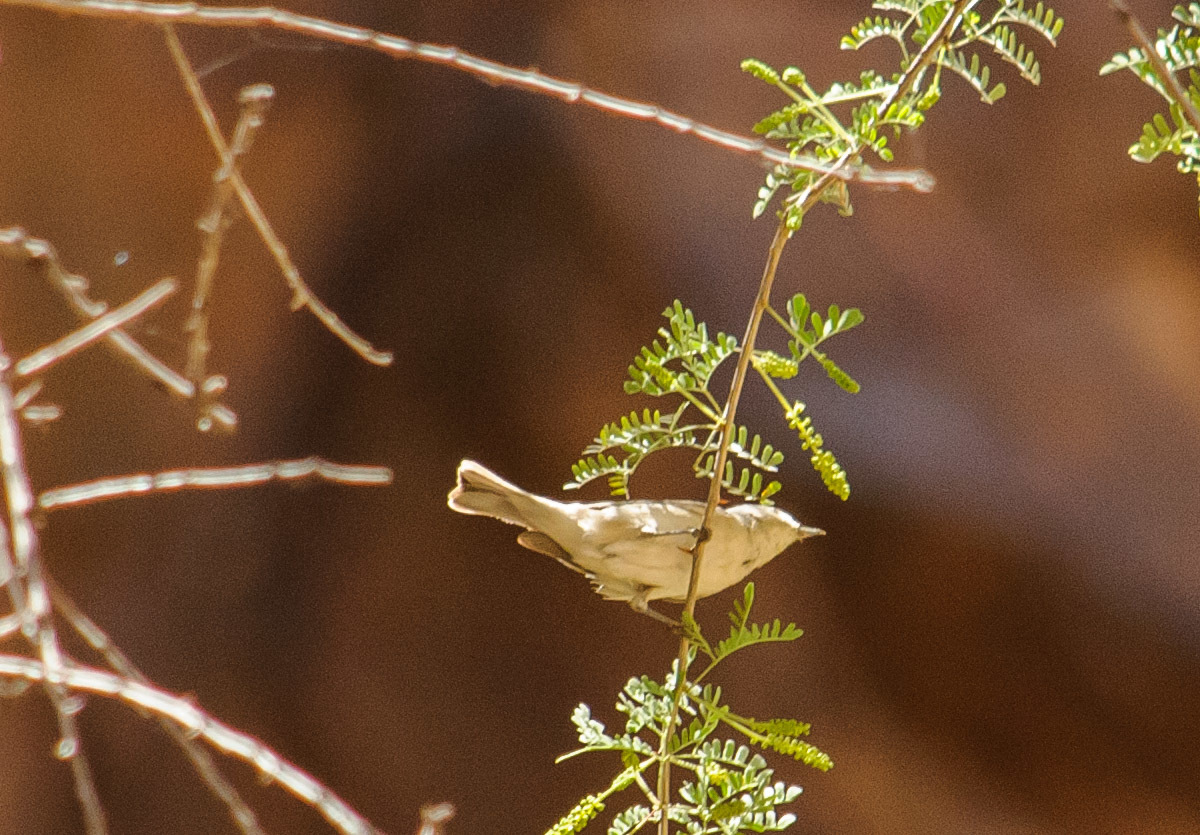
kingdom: Animalia
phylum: Chordata
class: Aves
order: Passeriformes
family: Parulidae
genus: Leiothlypis
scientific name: Leiothlypis luciae
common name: Lucy's warbler
